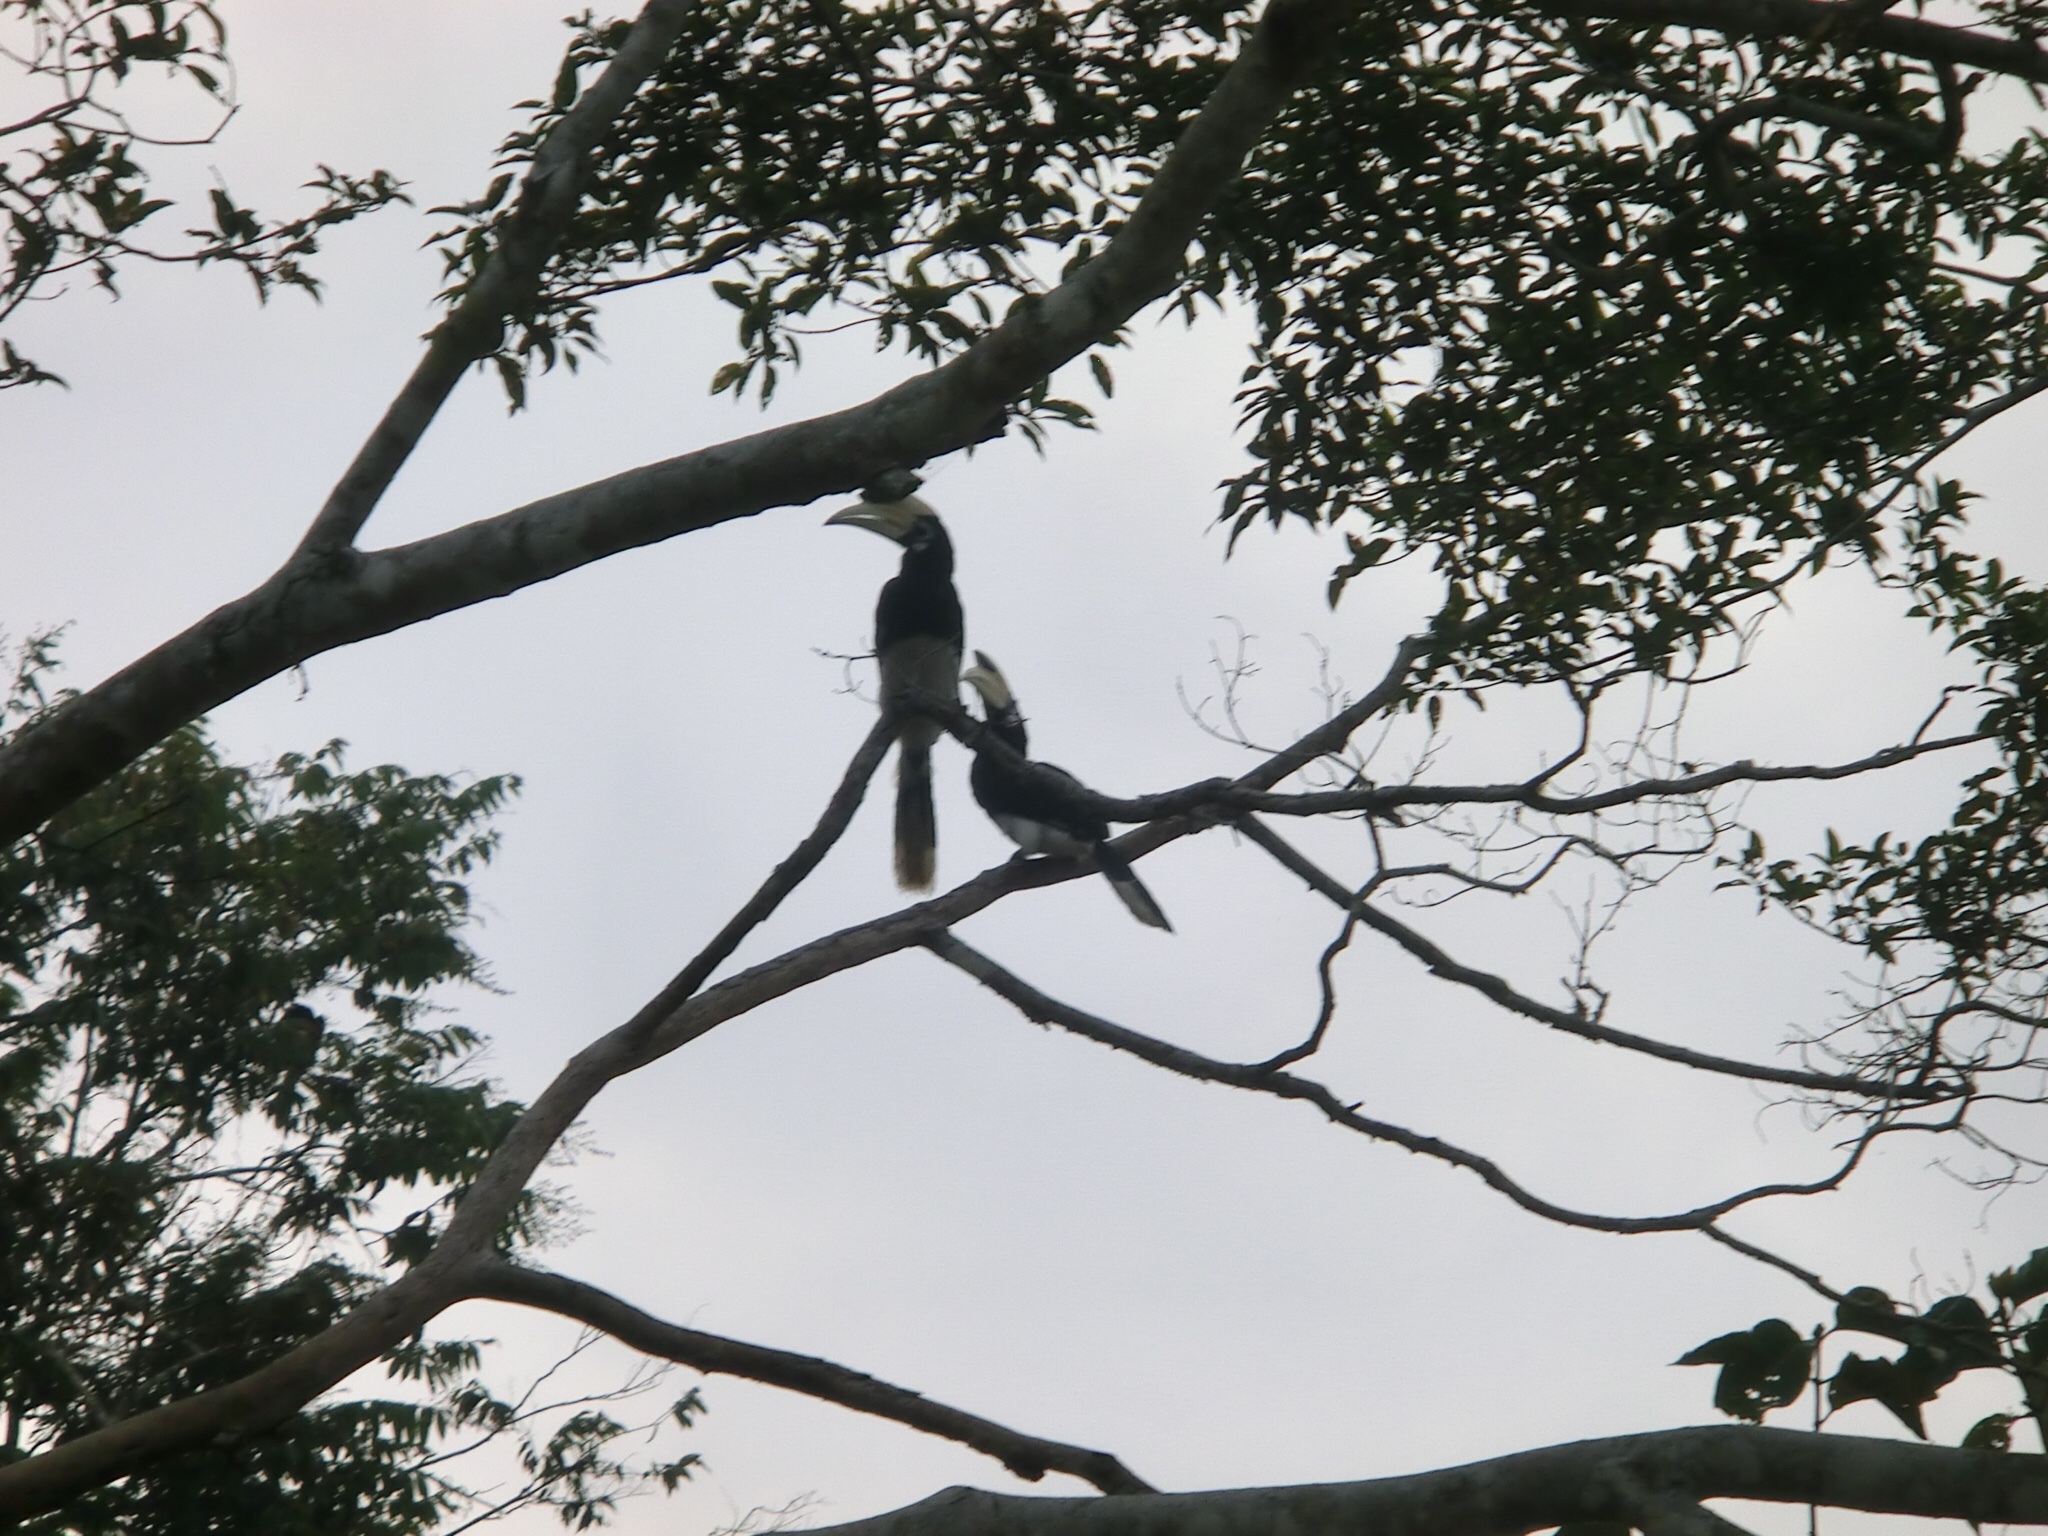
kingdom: Animalia
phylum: Chordata
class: Aves
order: Bucerotiformes
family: Bucerotidae
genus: Anthracoceros
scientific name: Anthracoceros albirostris
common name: Oriental pied-hornbill
